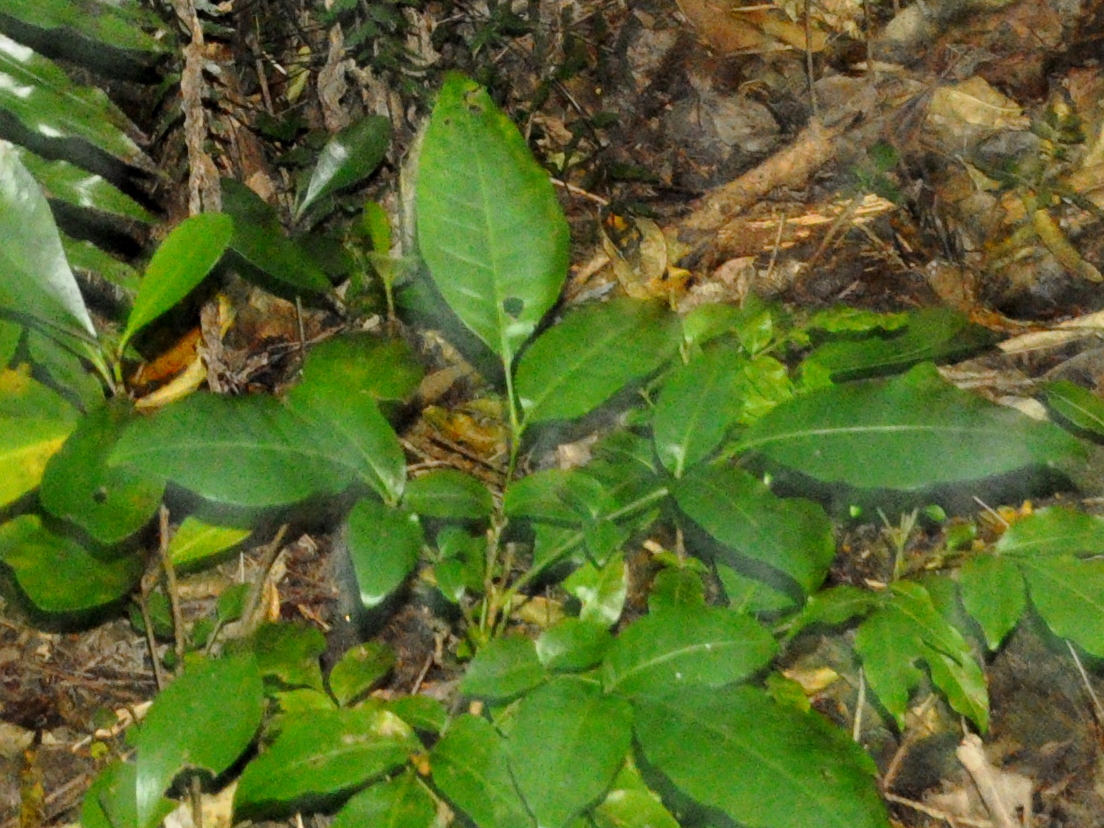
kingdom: Plantae
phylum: Tracheophyta
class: Magnoliopsida
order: Sapindales
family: Meliaceae
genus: Didymocheton
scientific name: Didymocheton spectabilis
